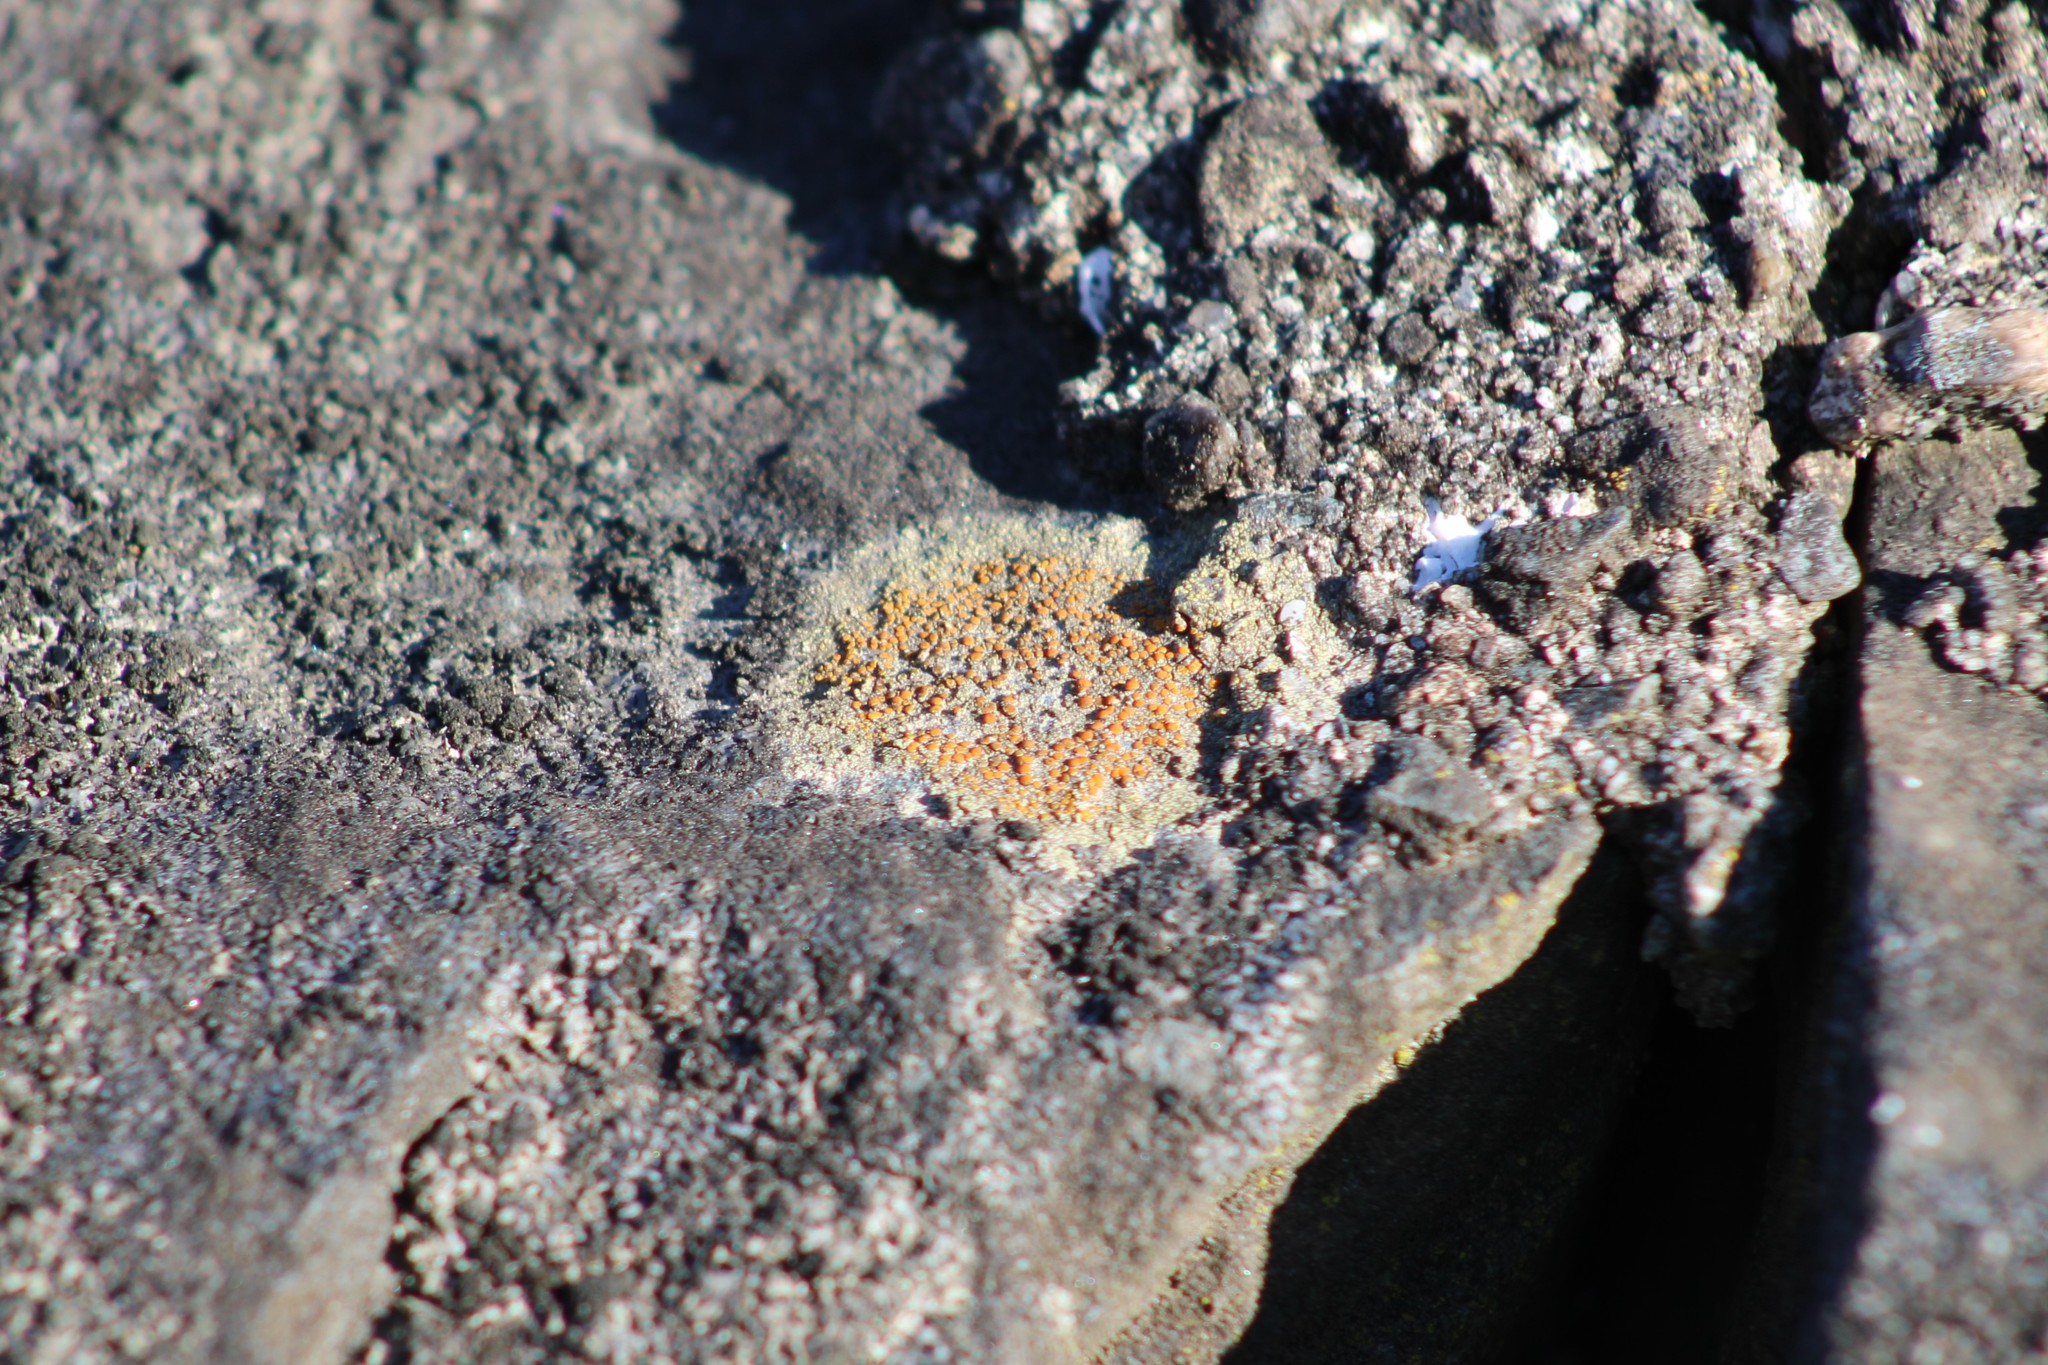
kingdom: Fungi
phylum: Ascomycota
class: Lecanoromycetes
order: Teloschistales
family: Teloschistaceae
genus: Gyalolechia
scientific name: Gyalolechia flavovirescens
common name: Sulphur firedot
